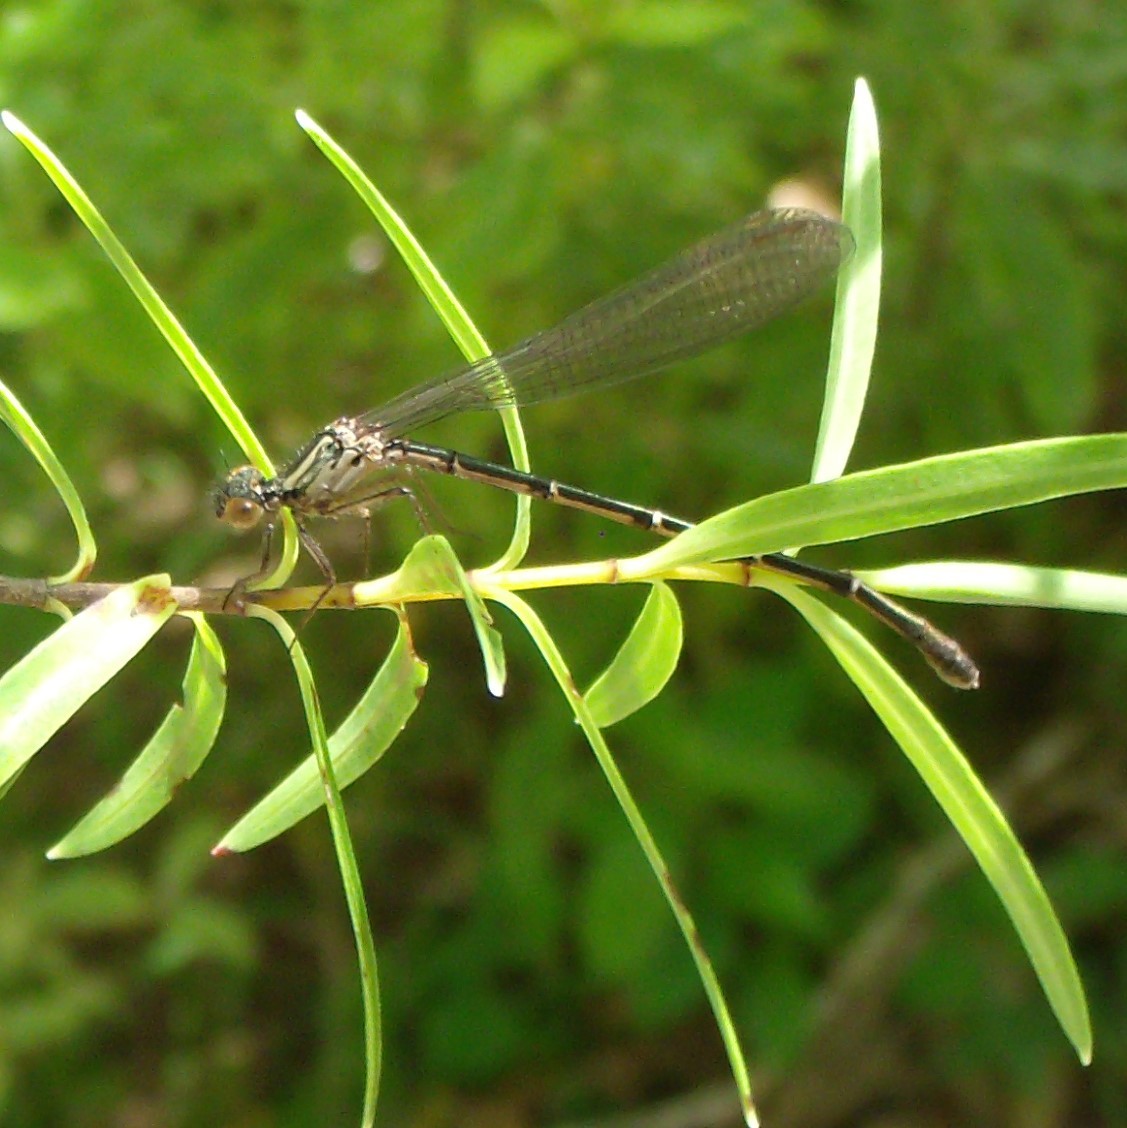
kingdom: Animalia
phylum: Arthropoda
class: Insecta
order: Odonata
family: Coenagrionidae
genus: Xanthocnemis
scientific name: Xanthocnemis zealandica
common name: Common redcoat damselfly
